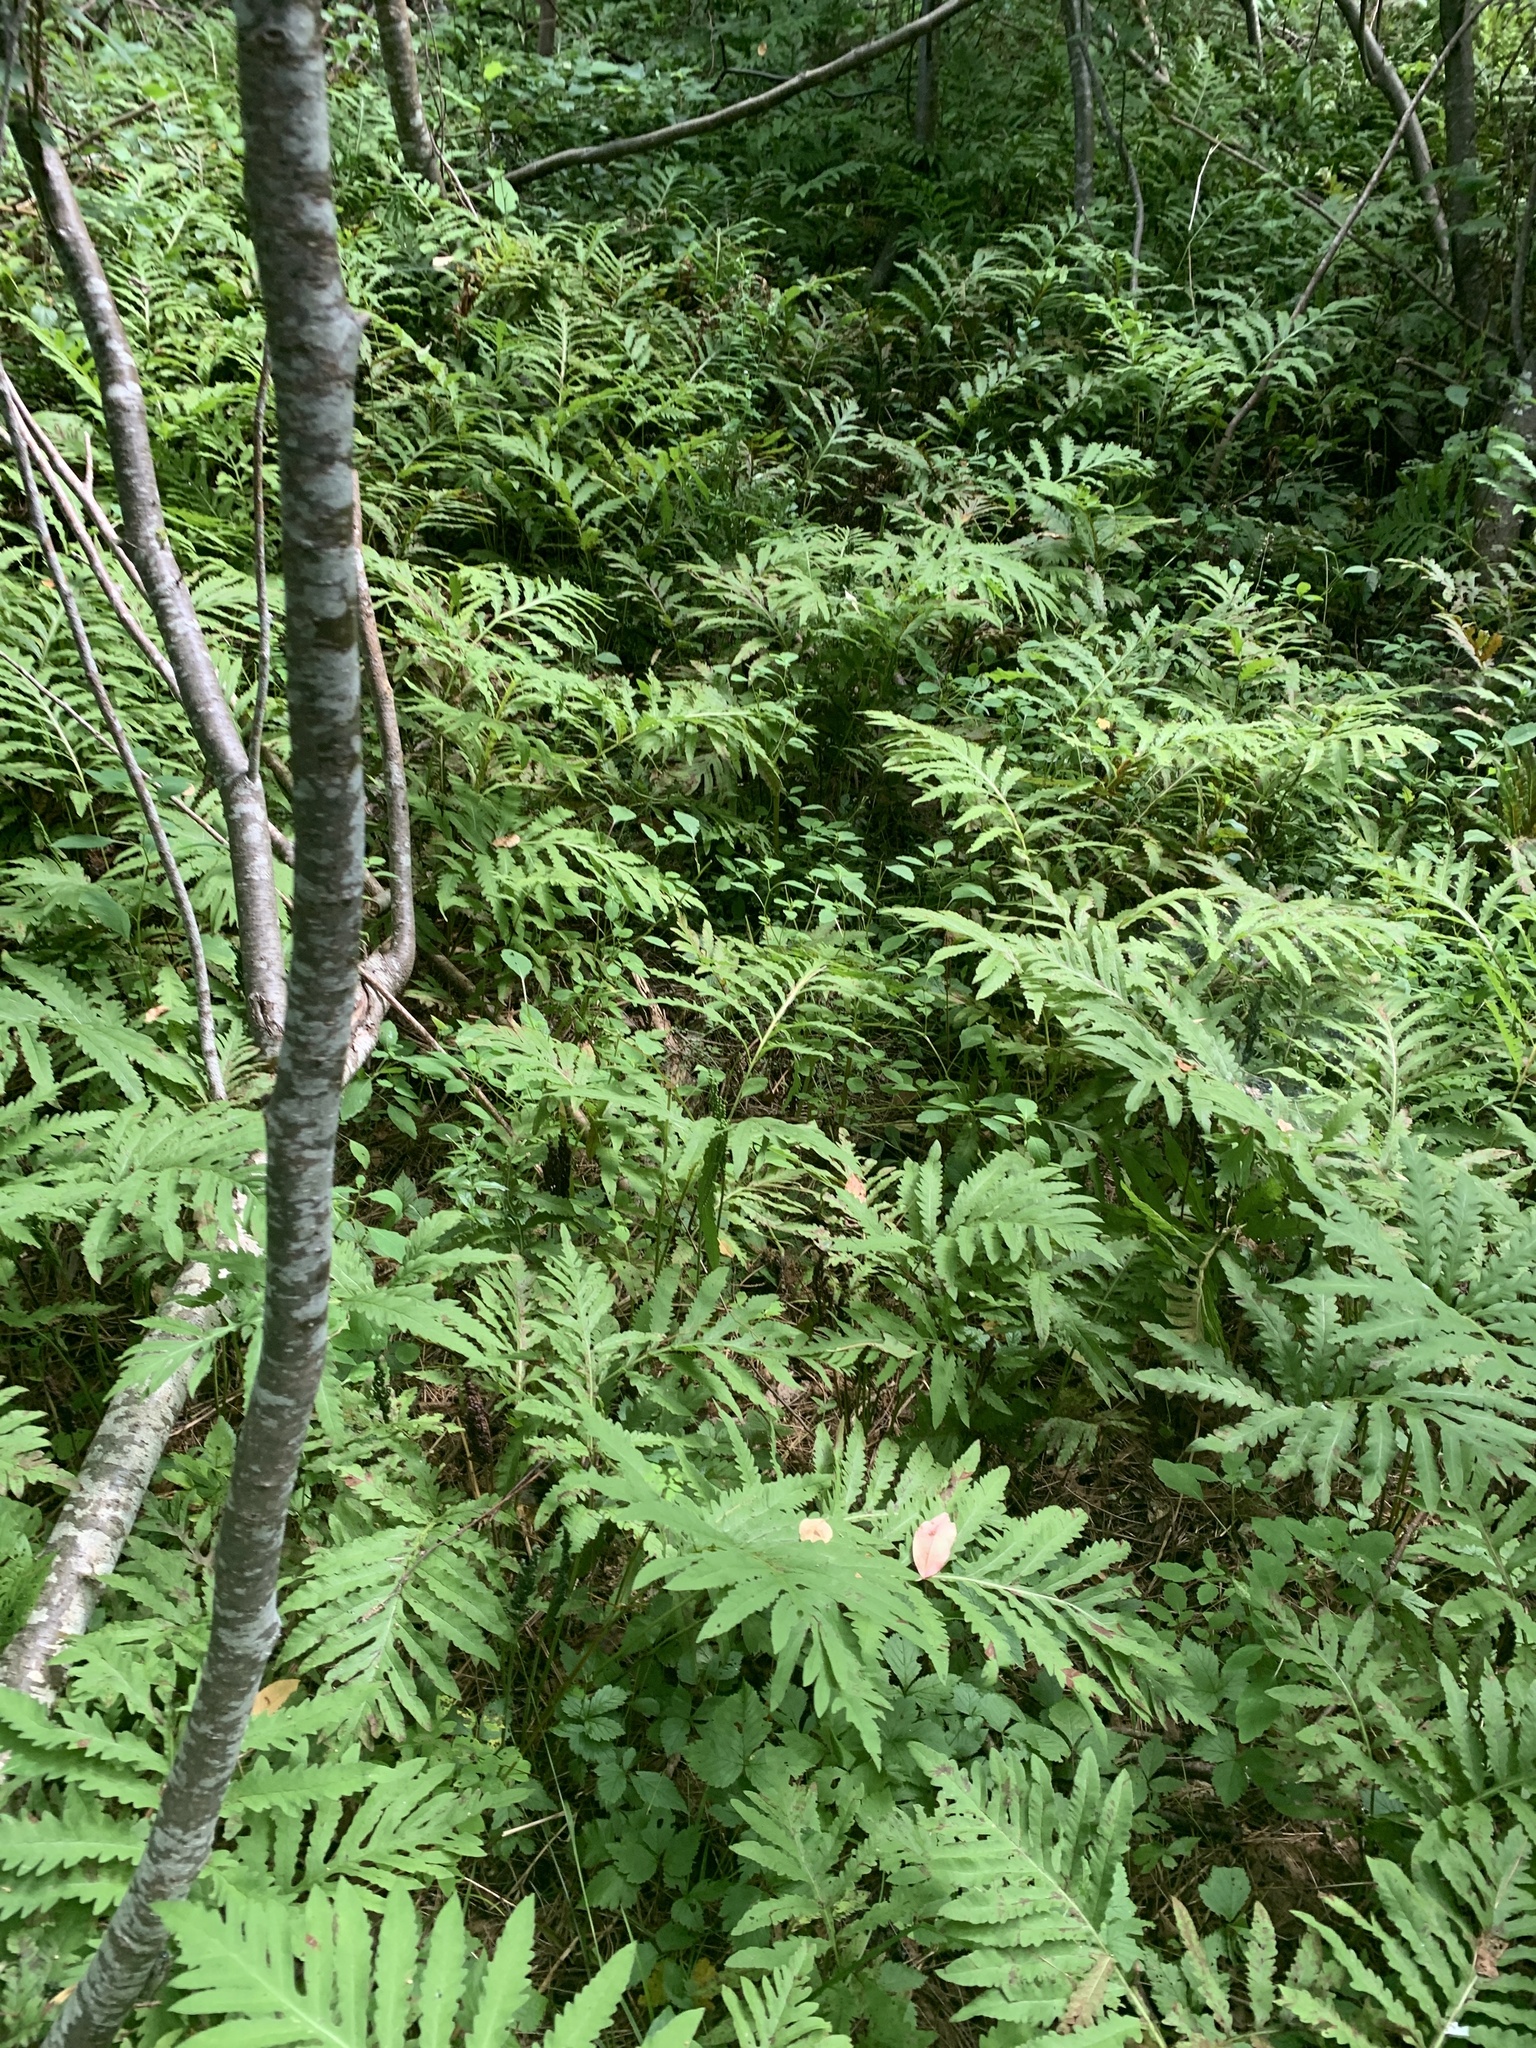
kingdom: Plantae
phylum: Tracheophyta
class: Polypodiopsida
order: Polypodiales
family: Onocleaceae
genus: Onoclea
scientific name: Onoclea sensibilis
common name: Sensitive fern
